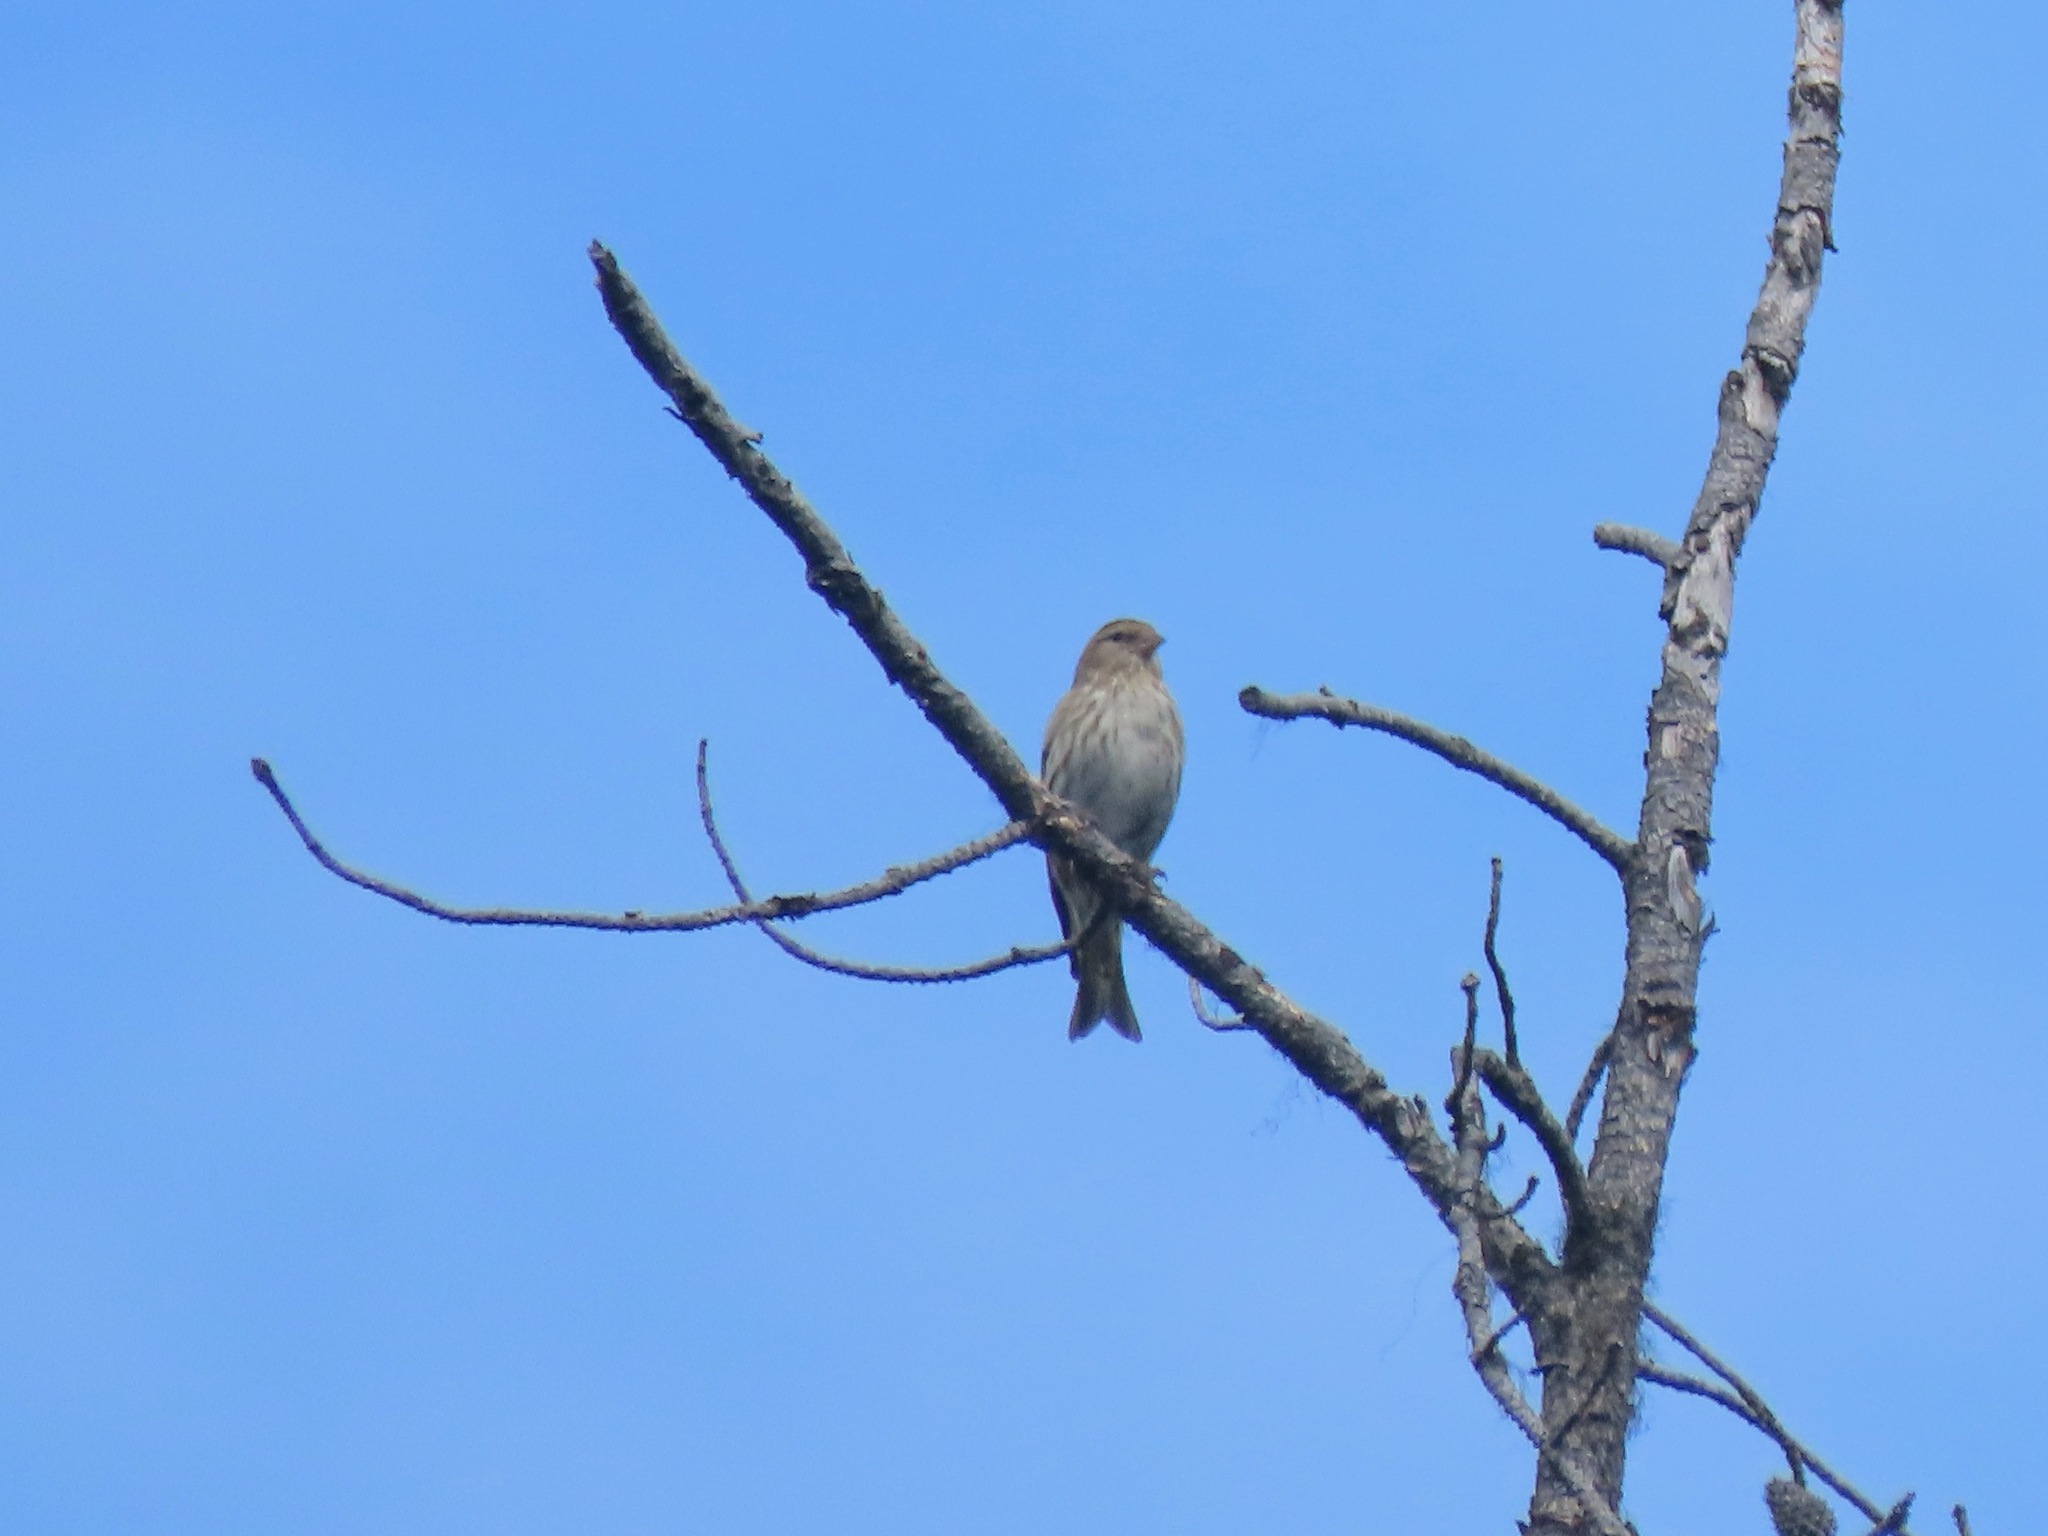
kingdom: Animalia
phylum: Chordata
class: Aves
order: Passeriformes
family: Fringillidae
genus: Spinus
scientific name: Spinus pinus
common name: Pine siskin
